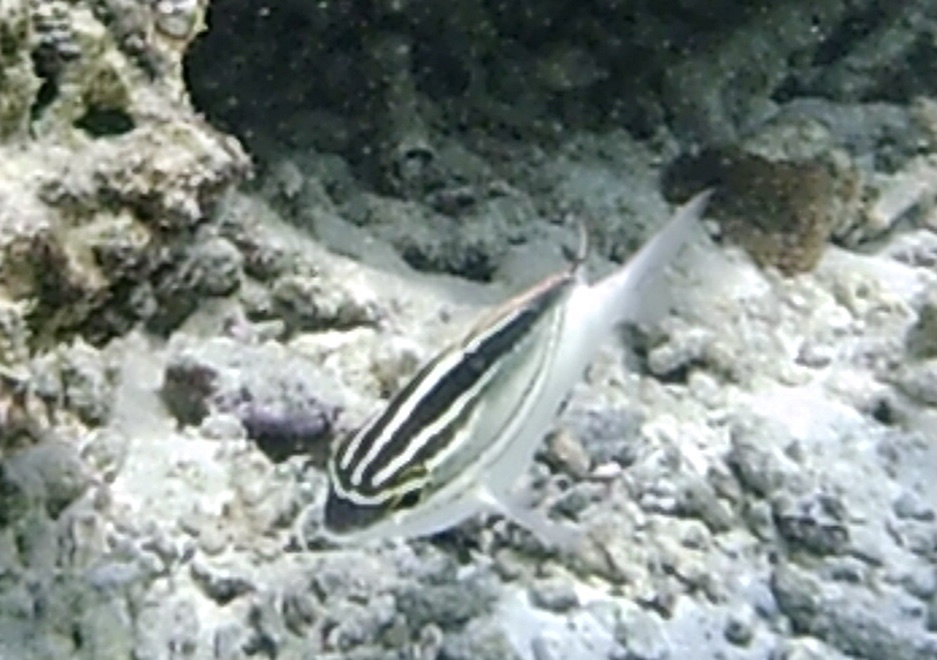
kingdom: Animalia
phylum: Chordata
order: Perciformes
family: Nemipteridae
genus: Scolopsis
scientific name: Scolopsis bilineata
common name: Two-lined monocle bream
